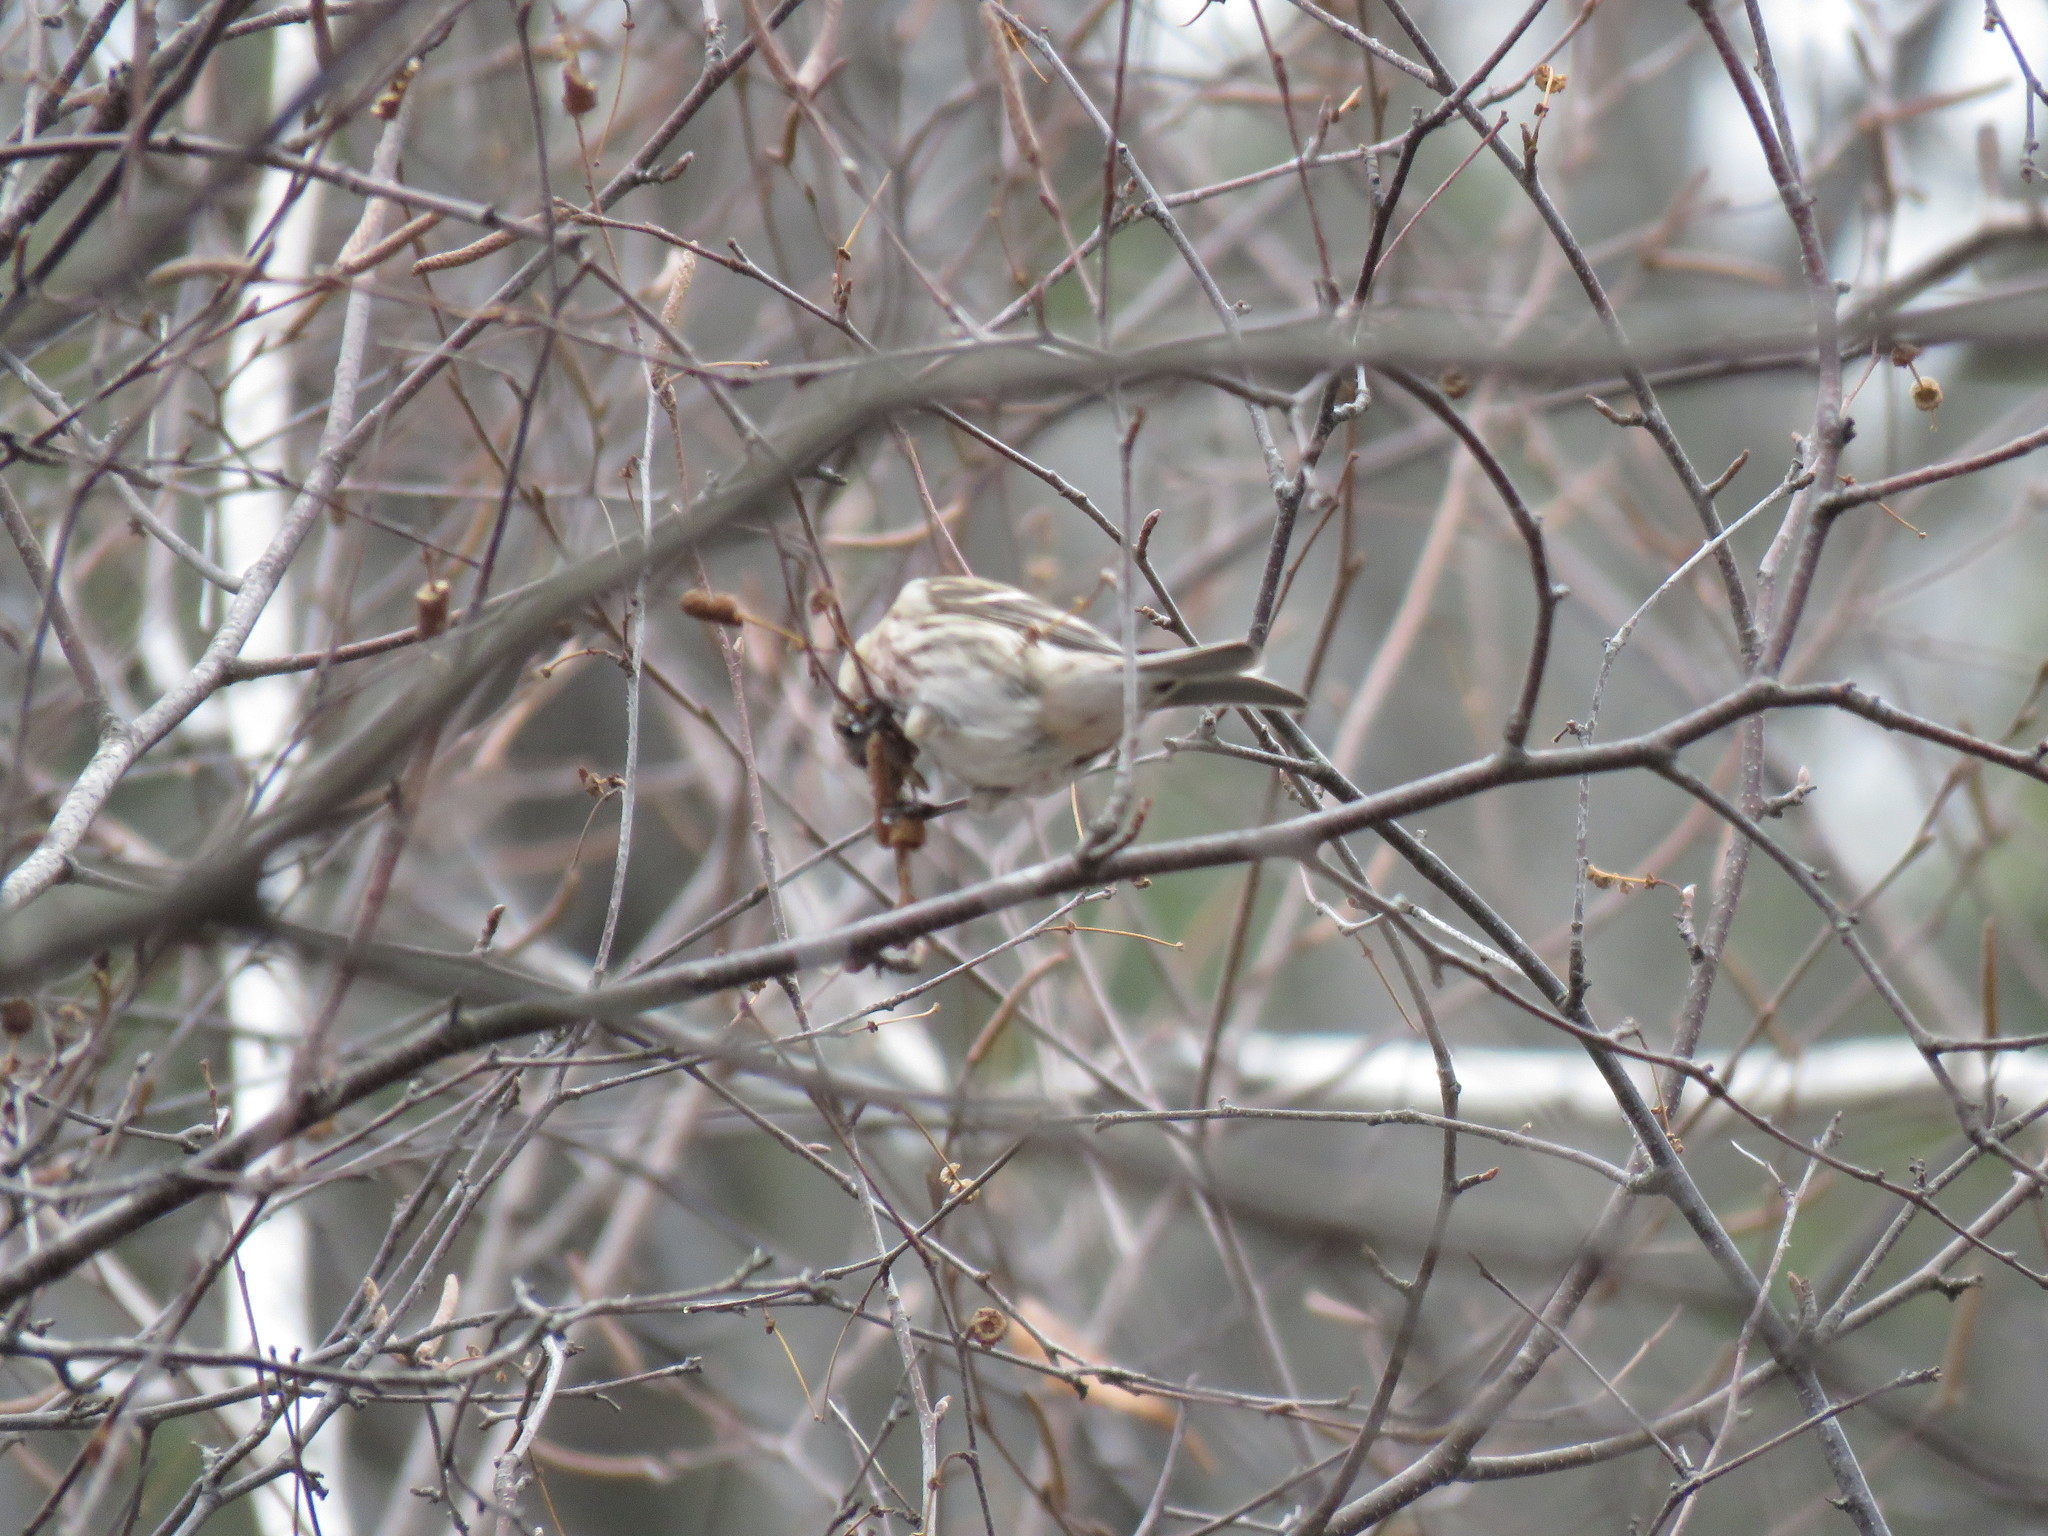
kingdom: Animalia
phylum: Chordata
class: Aves
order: Passeriformes
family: Fringillidae
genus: Acanthis
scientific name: Acanthis flammea
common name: Common redpoll
